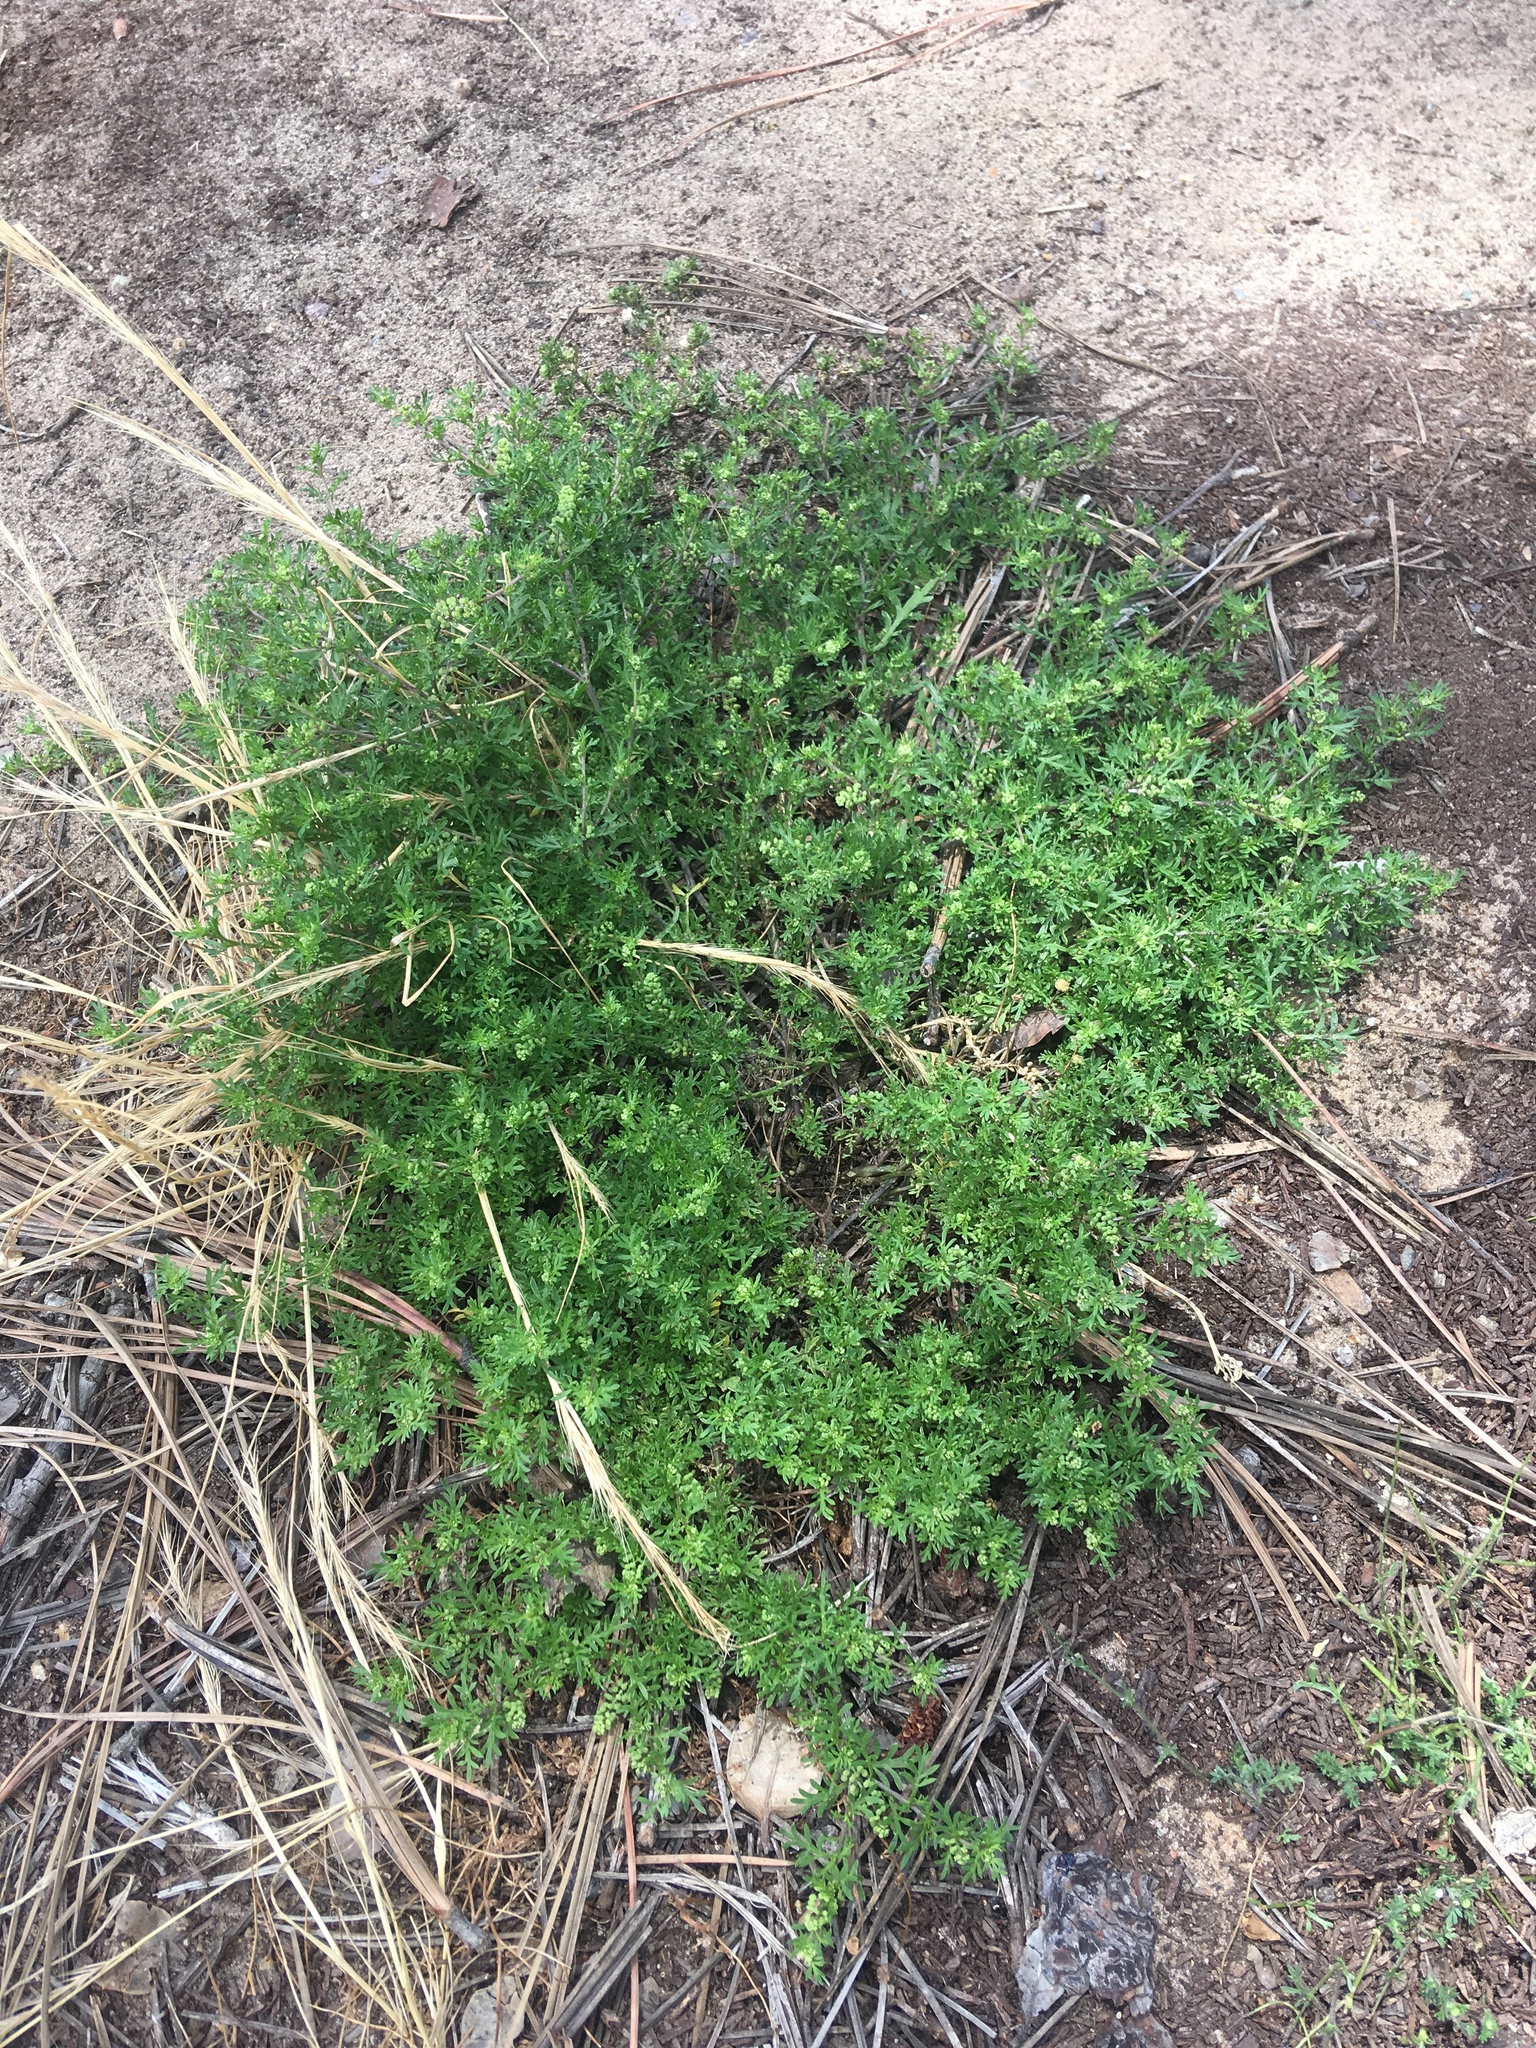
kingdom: Plantae
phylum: Tracheophyta
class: Magnoliopsida
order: Brassicales
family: Brassicaceae
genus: Lepidium
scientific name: Lepidium didymum
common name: Lesser swinecress
